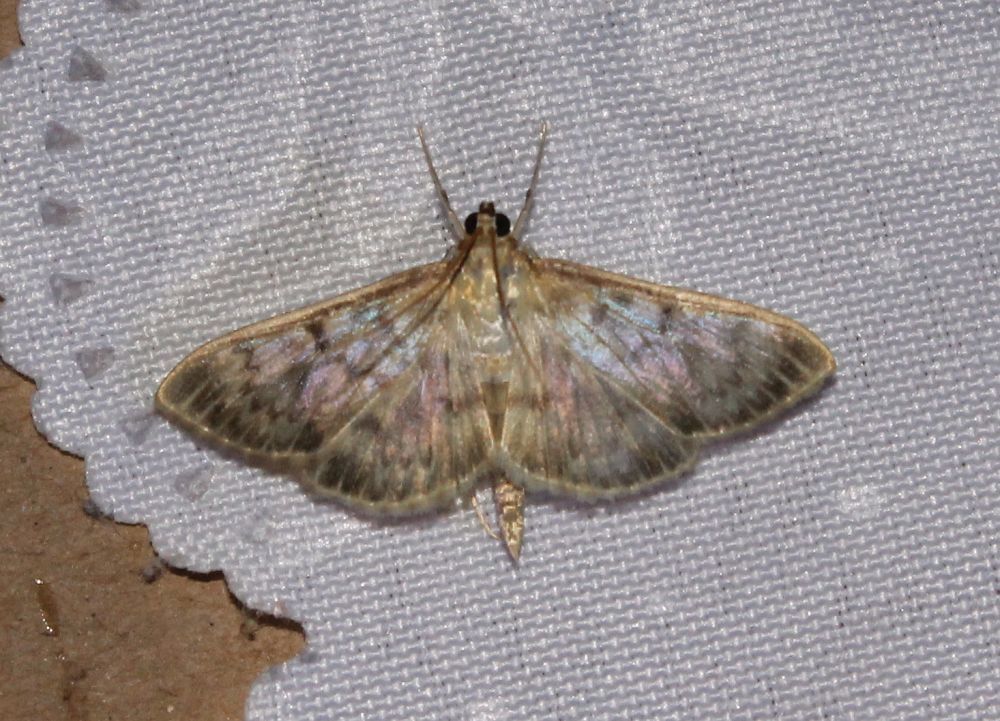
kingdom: Animalia
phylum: Arthropoda
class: Insecta
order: Lepidoptera
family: Crambidae
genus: Patania
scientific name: Patania ruralis
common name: Mother of pearl
